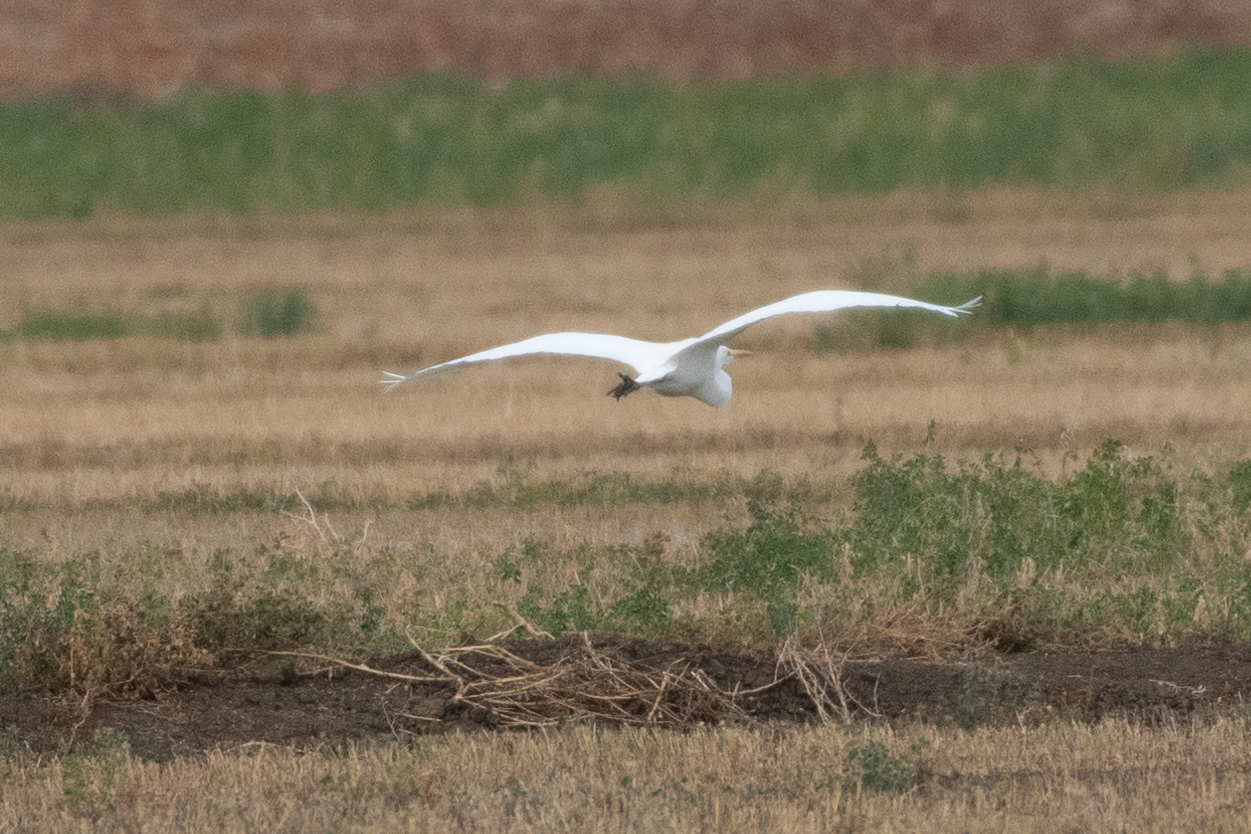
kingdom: Animalia
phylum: Chordata
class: Aves
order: Pelecaniformes
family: Ardeidae
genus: Ardea
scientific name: Ardea alba
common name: Great egret
